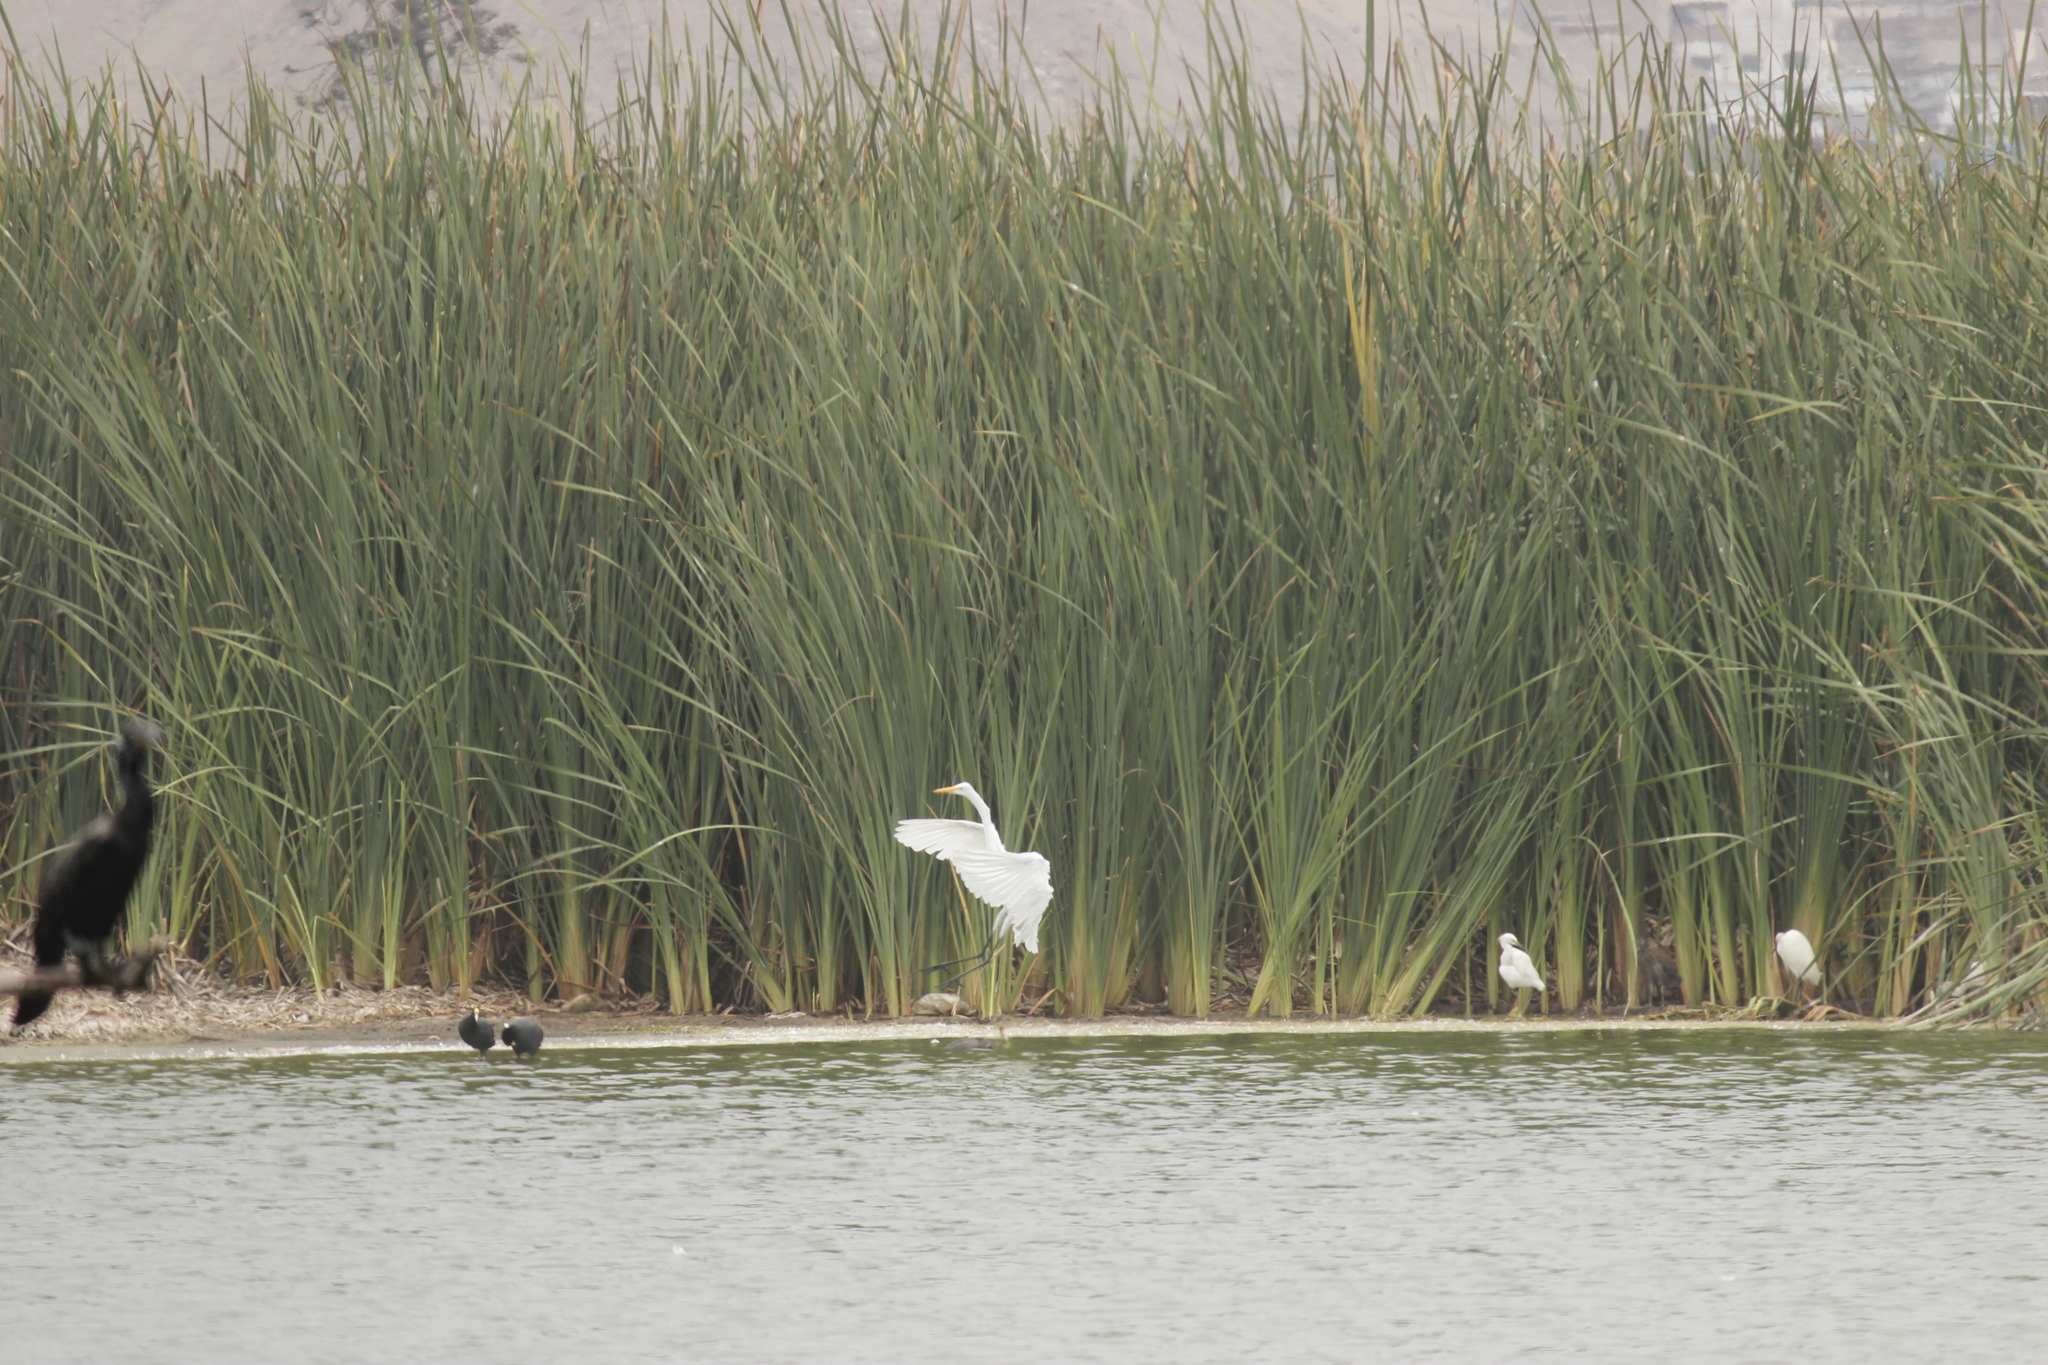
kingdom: Animalia
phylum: Chordata
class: Aves
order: Pelecaniformes
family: Ardeidae
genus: Ardea
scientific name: Ardea alba
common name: Great egret
